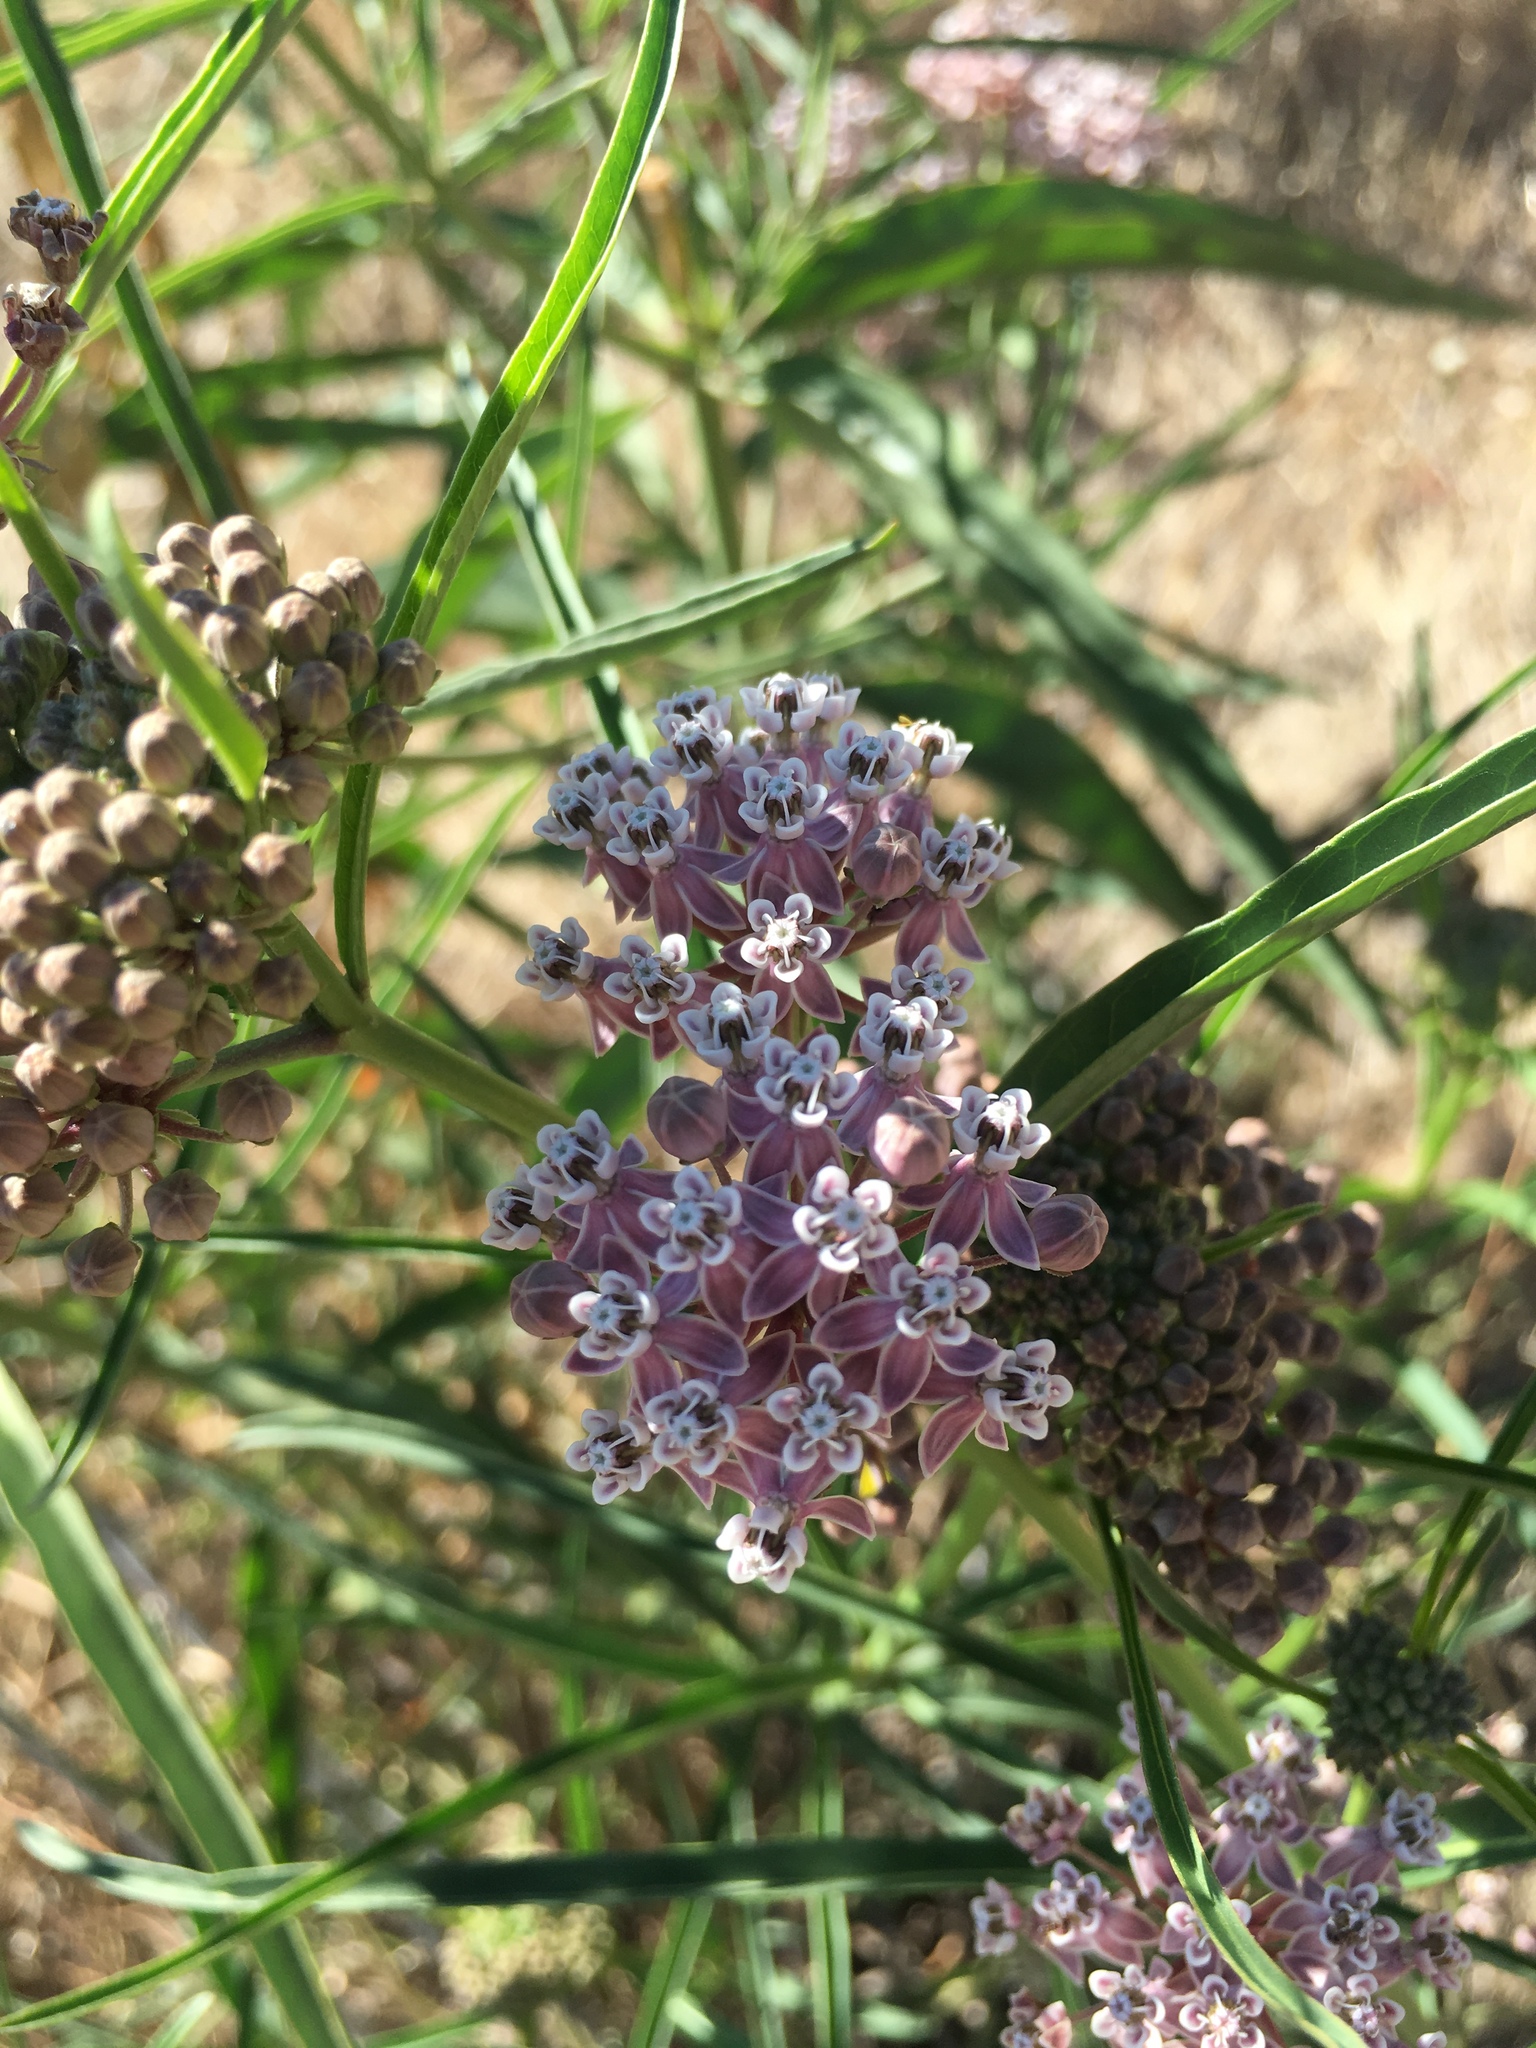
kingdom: Plantae
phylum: Tracheophyta
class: Magnoliopsida
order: Gentianales
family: Apocynaceae
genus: Asclepias
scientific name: Asclepias fascicularis
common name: Mexican milkweed
